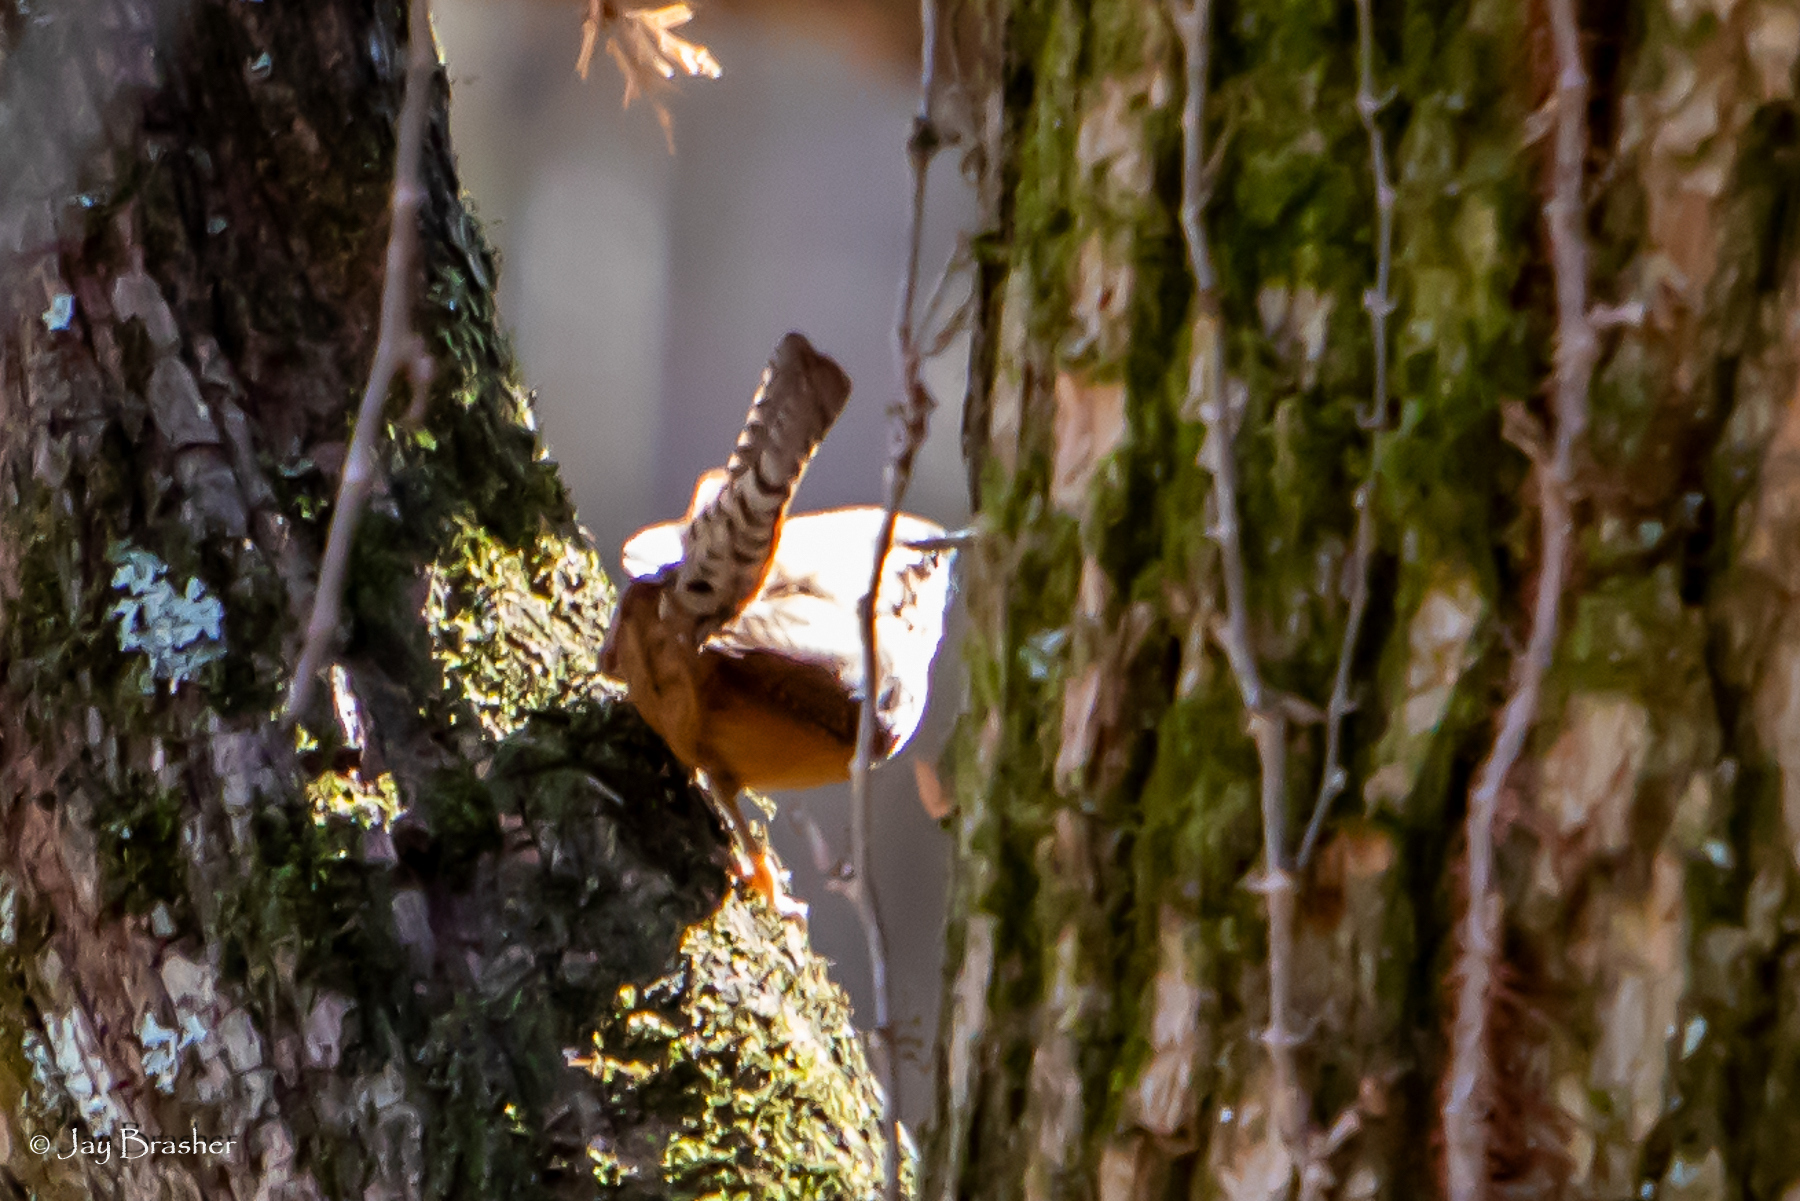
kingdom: Animalia
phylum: Chordata
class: Aves
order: Passeriformes
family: Troglodytidae
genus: Thryothorus
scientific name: Thryothorus ludovicianus
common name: Carolina wren
